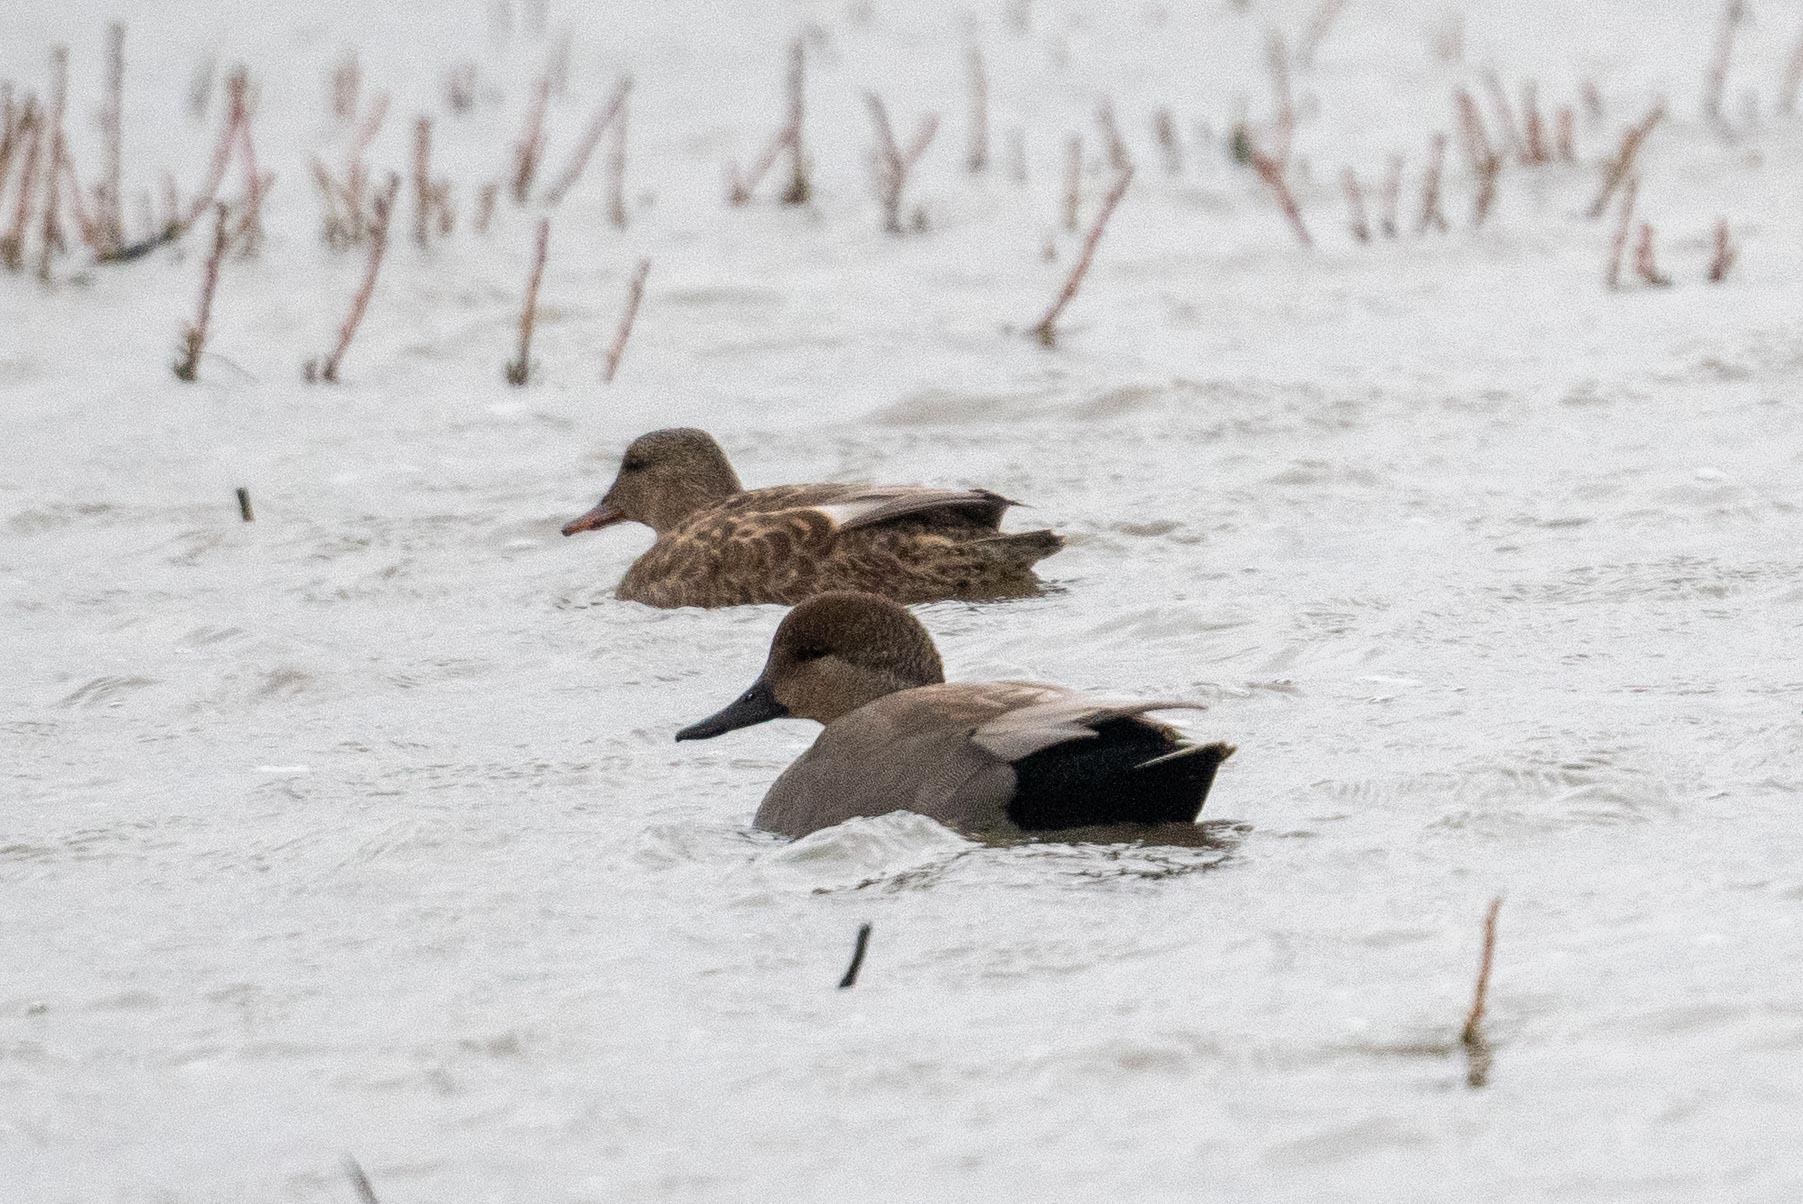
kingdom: Animalia
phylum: Chordata
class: Aves
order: Anseriformes
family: Anatidae
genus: Mareca
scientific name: Mareca strepera
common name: Gadwall
